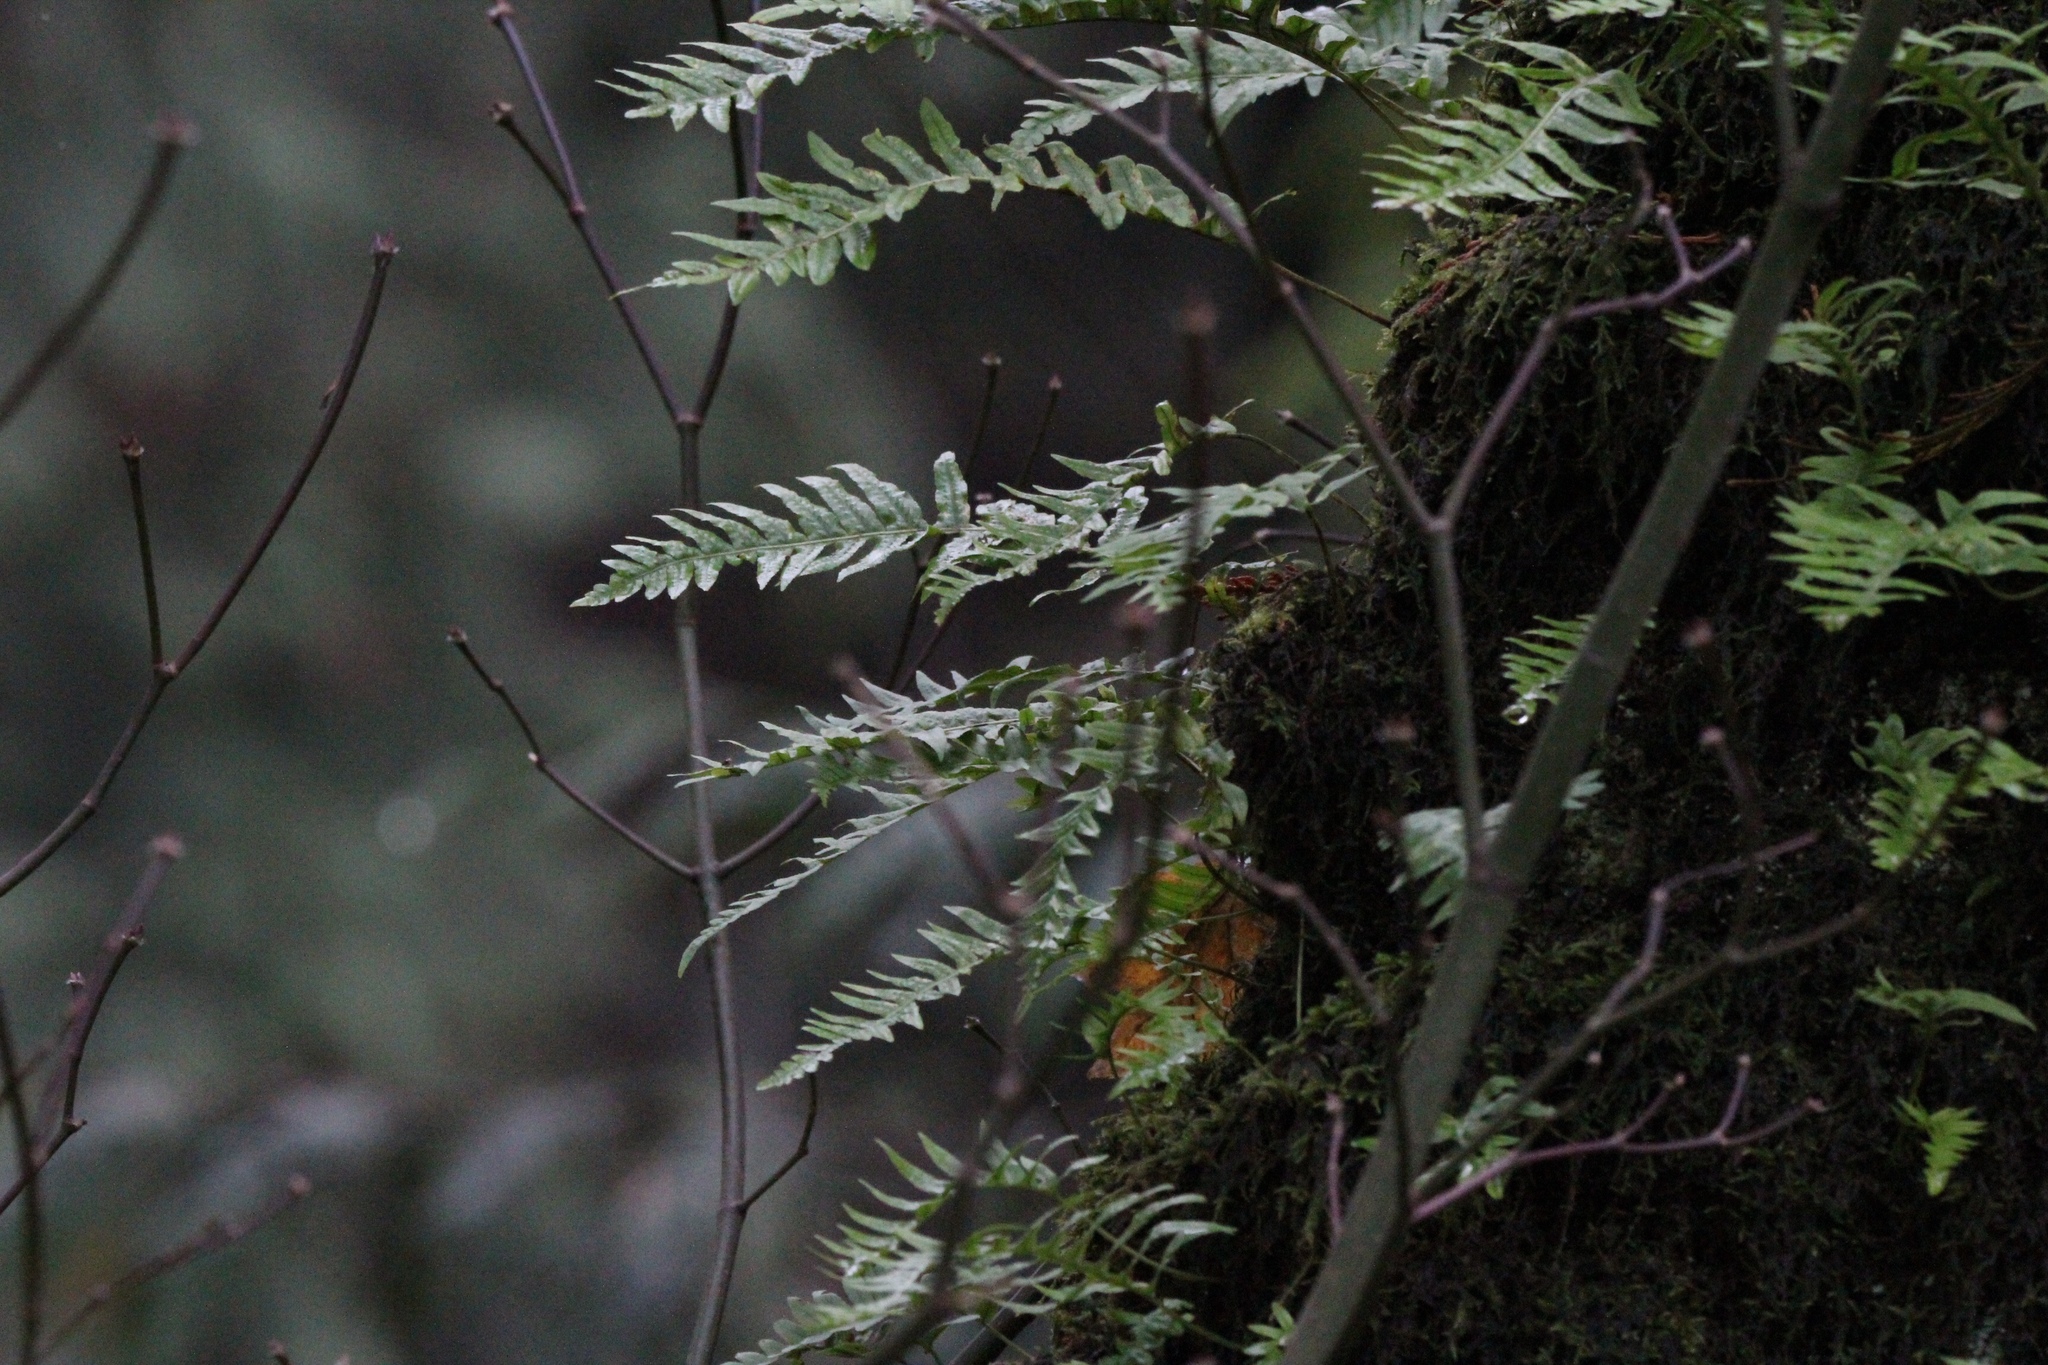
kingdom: Plantae
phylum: Tracheophyta
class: Polypodiopsida
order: Polypodiales
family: Polypodiaceae
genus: Polypodium
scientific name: Polypodium glycyrrhiza
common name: Licorice fern
